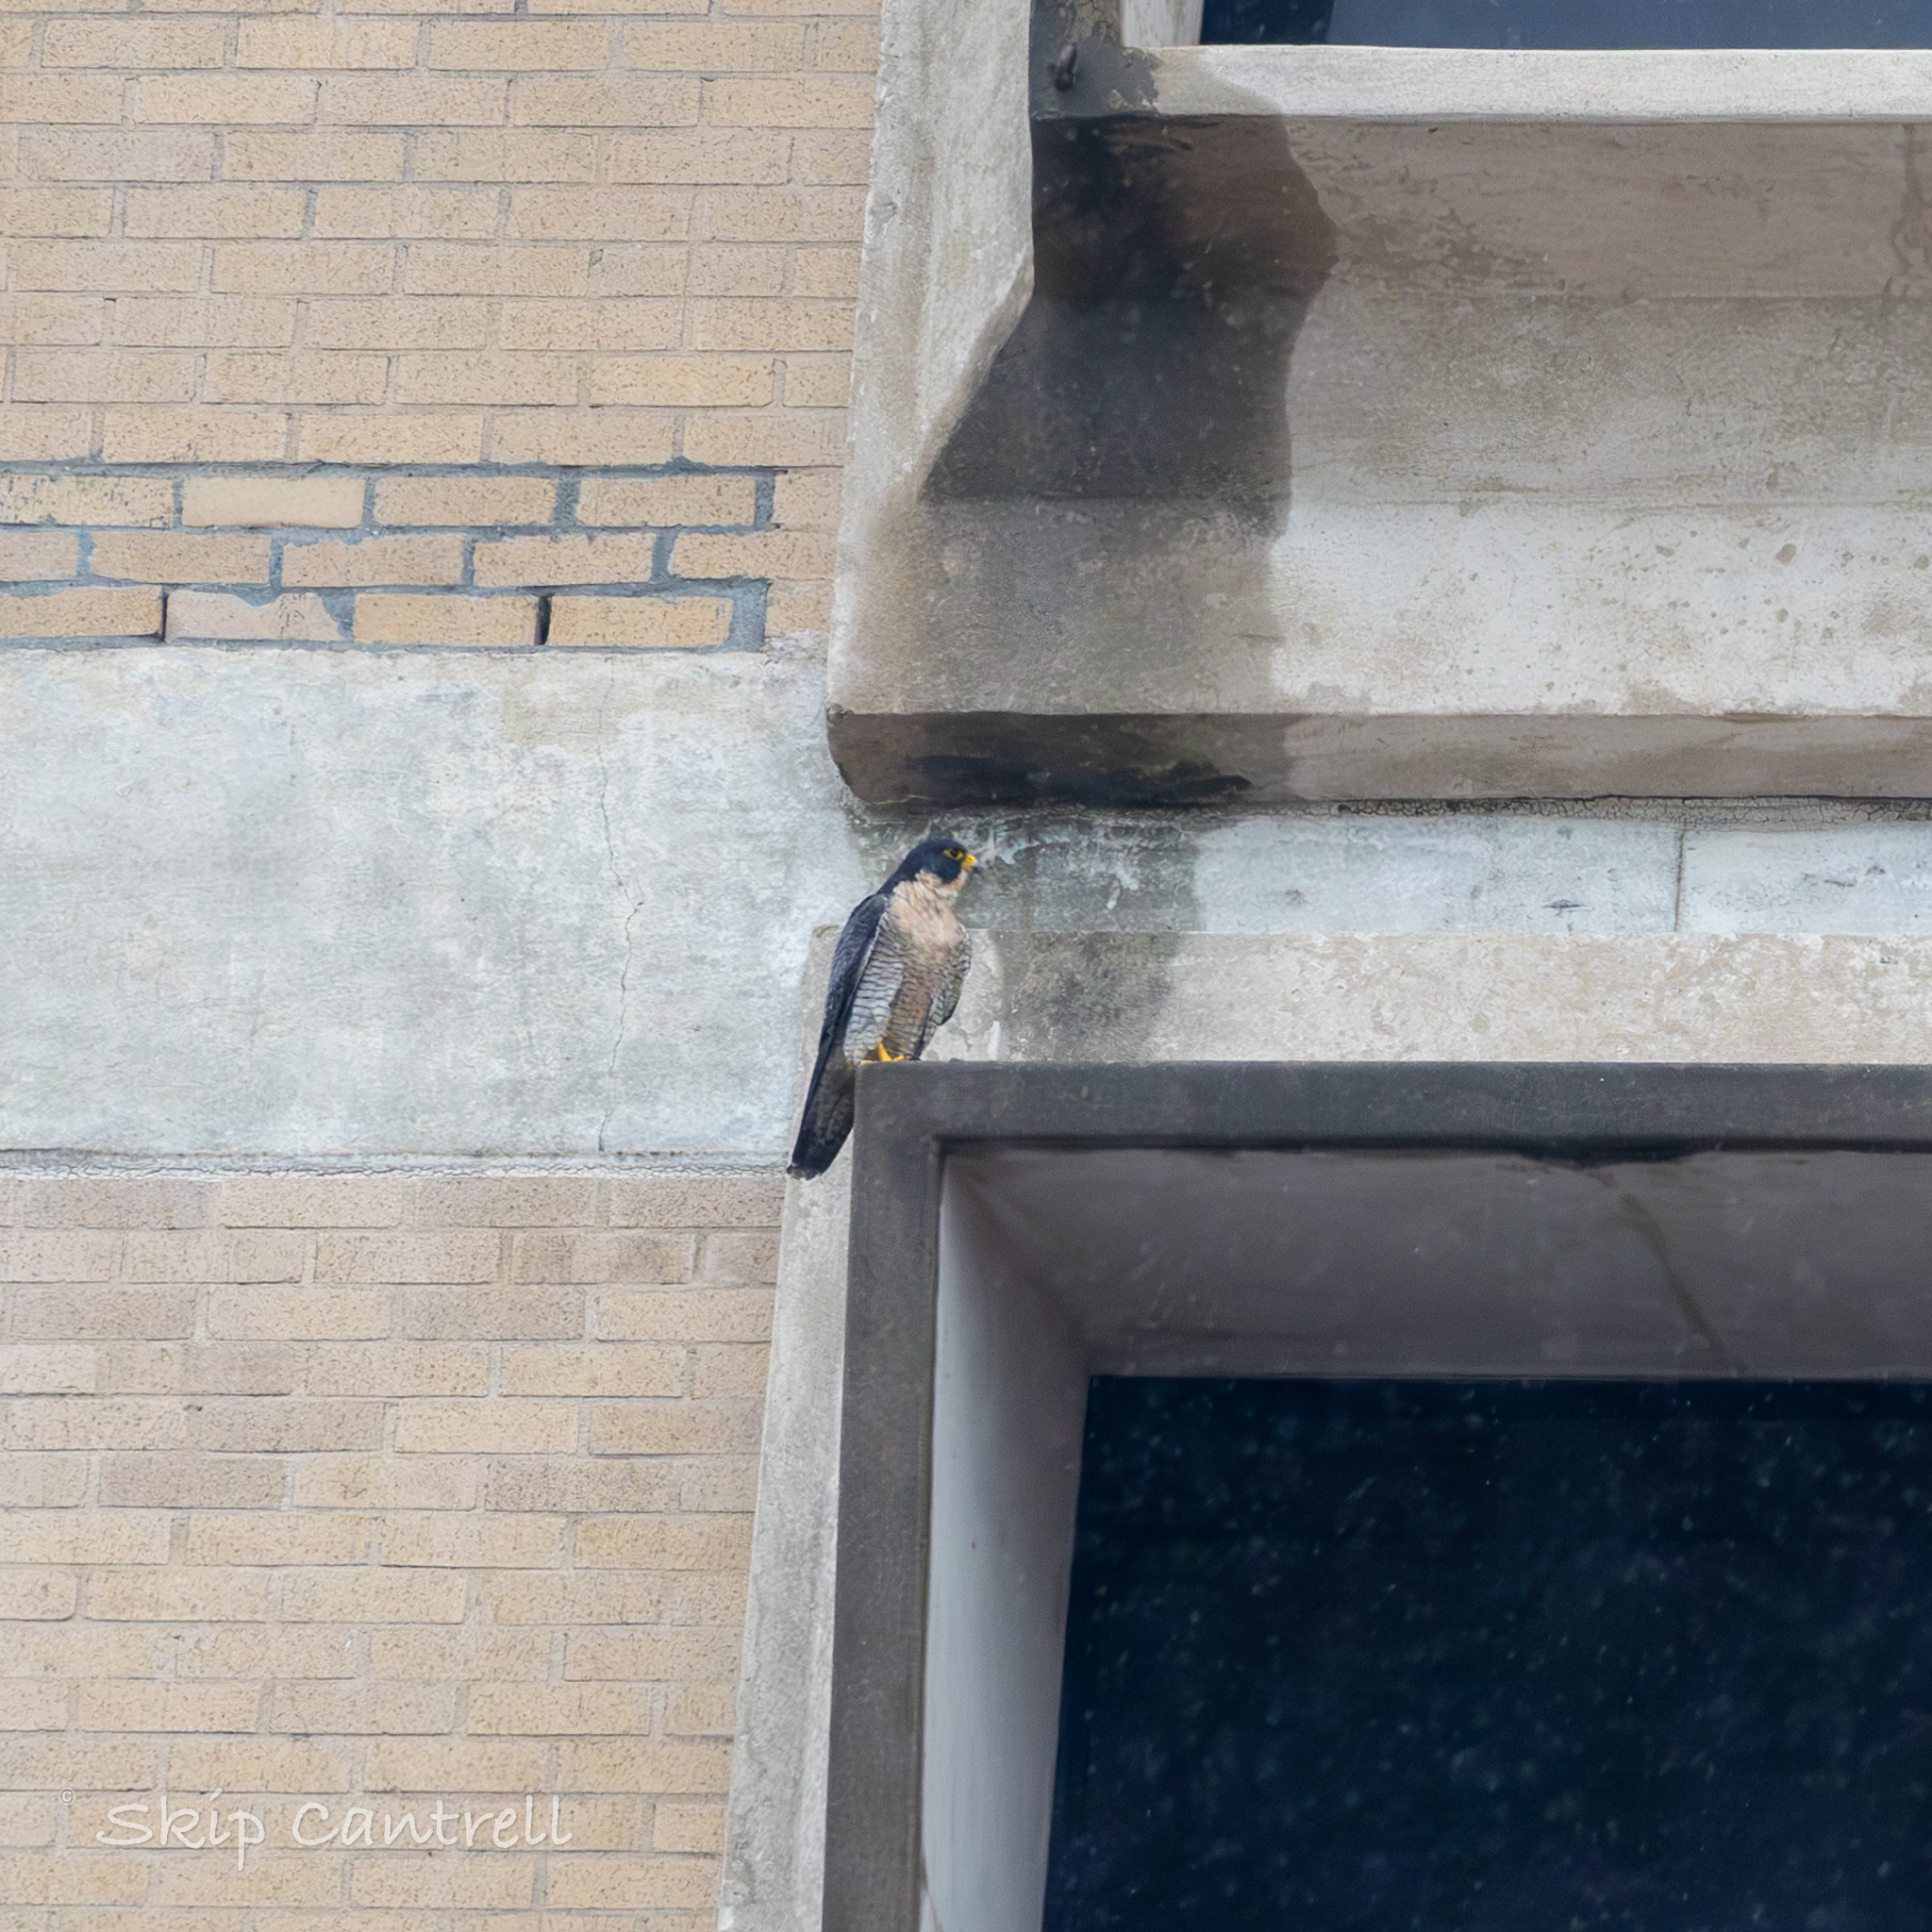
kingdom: Animalia
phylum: Chordata
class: Aves
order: Falconiformes
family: Falconidae
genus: Falco
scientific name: Falco peregrinus
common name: Peregrine falcon
